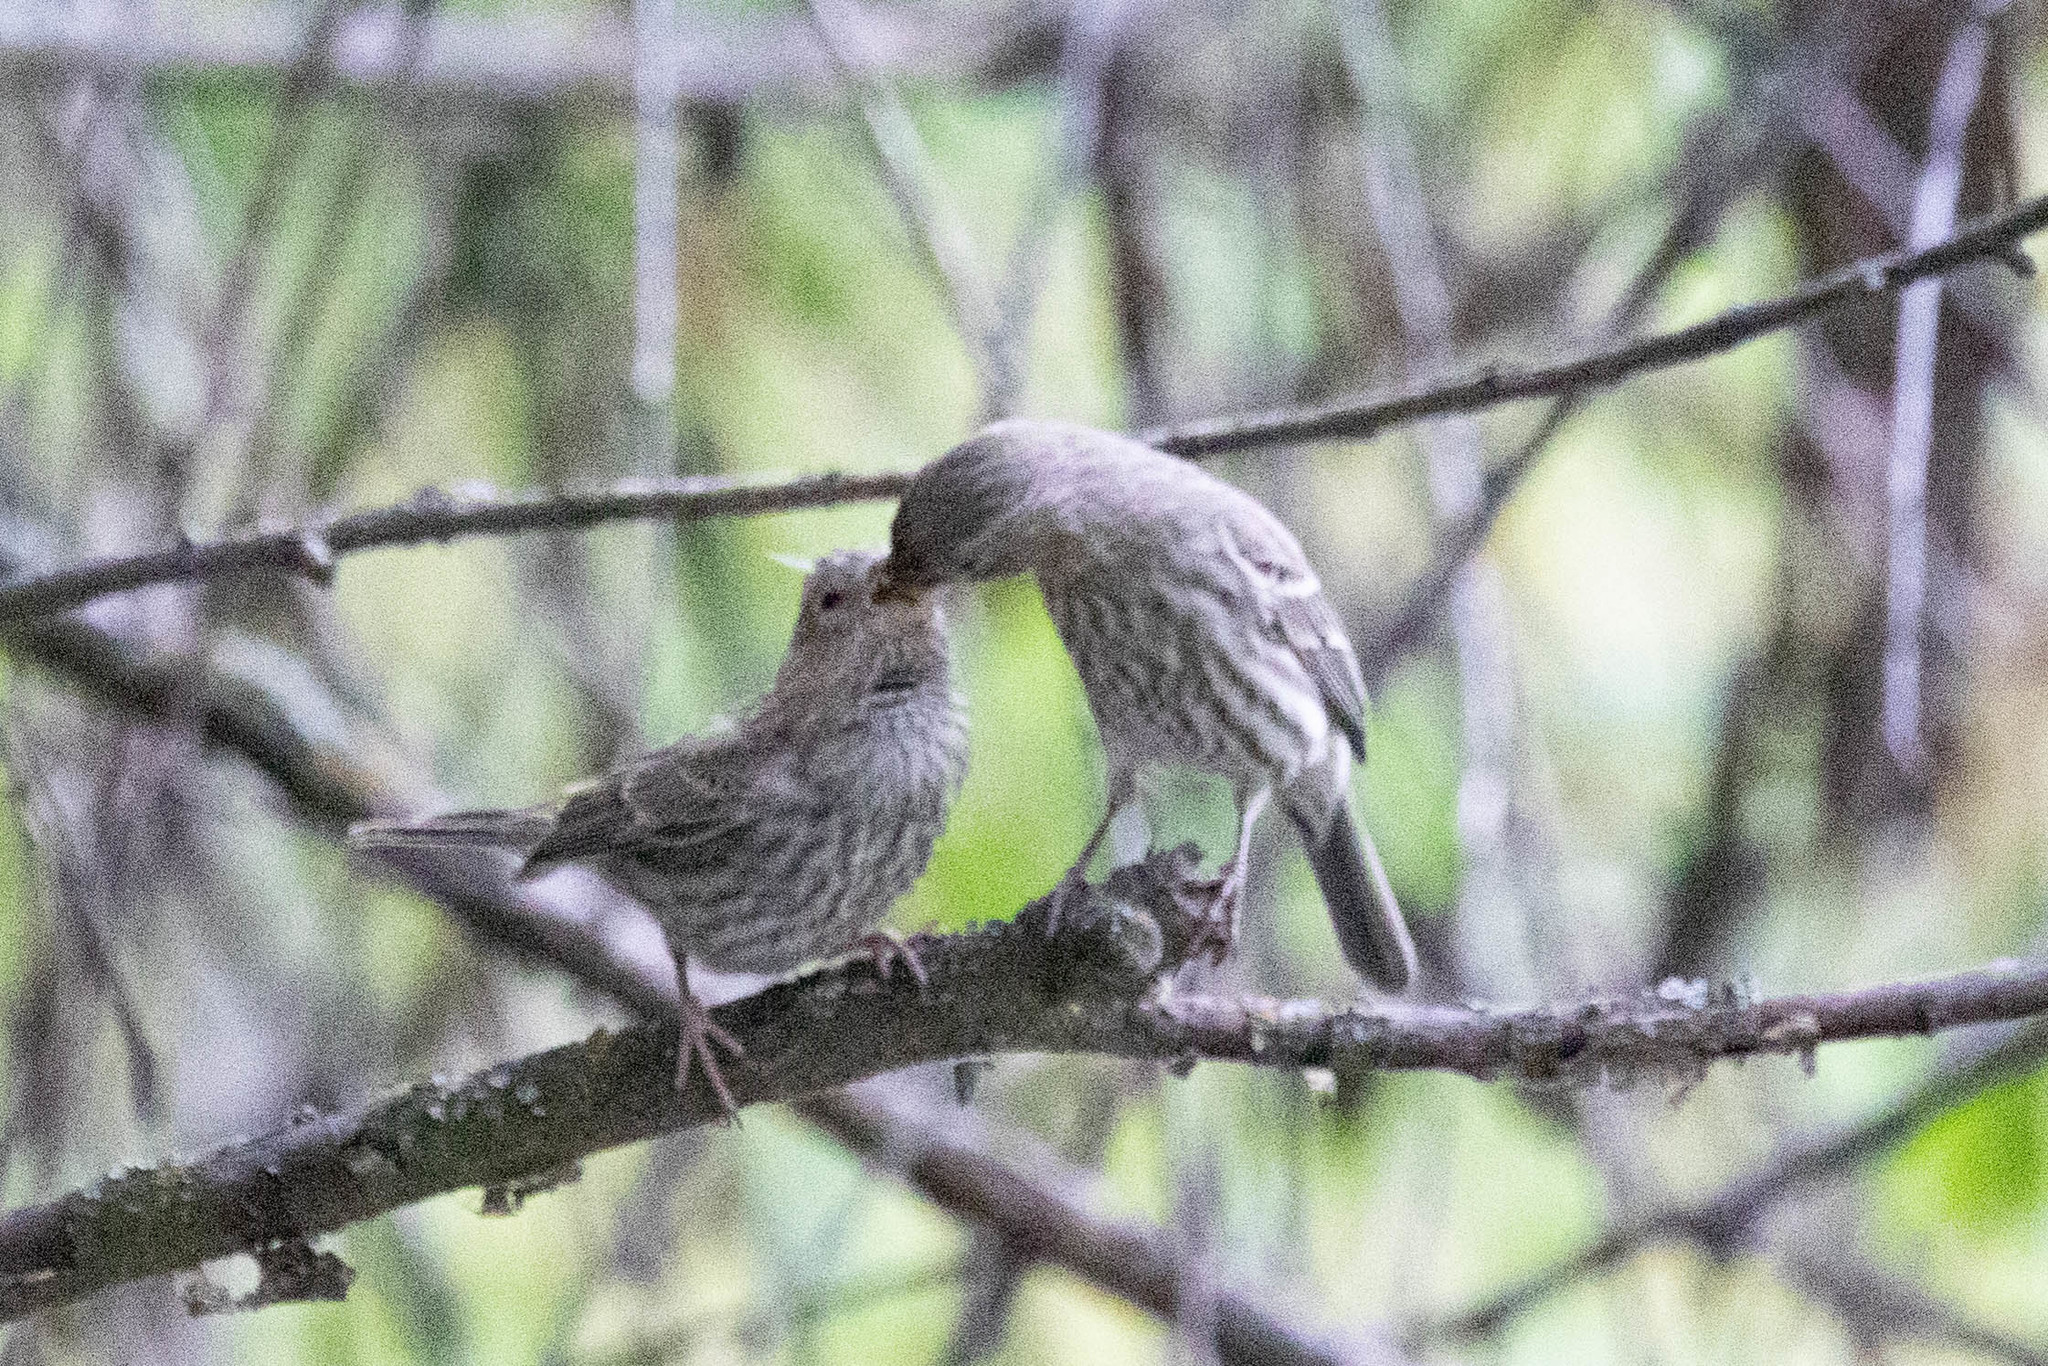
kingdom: Animalia
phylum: Chordata
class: Aves
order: Passeriformes
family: Fringillidae
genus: Haemorhous
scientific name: Haemorhous mexicanus
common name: House finch
